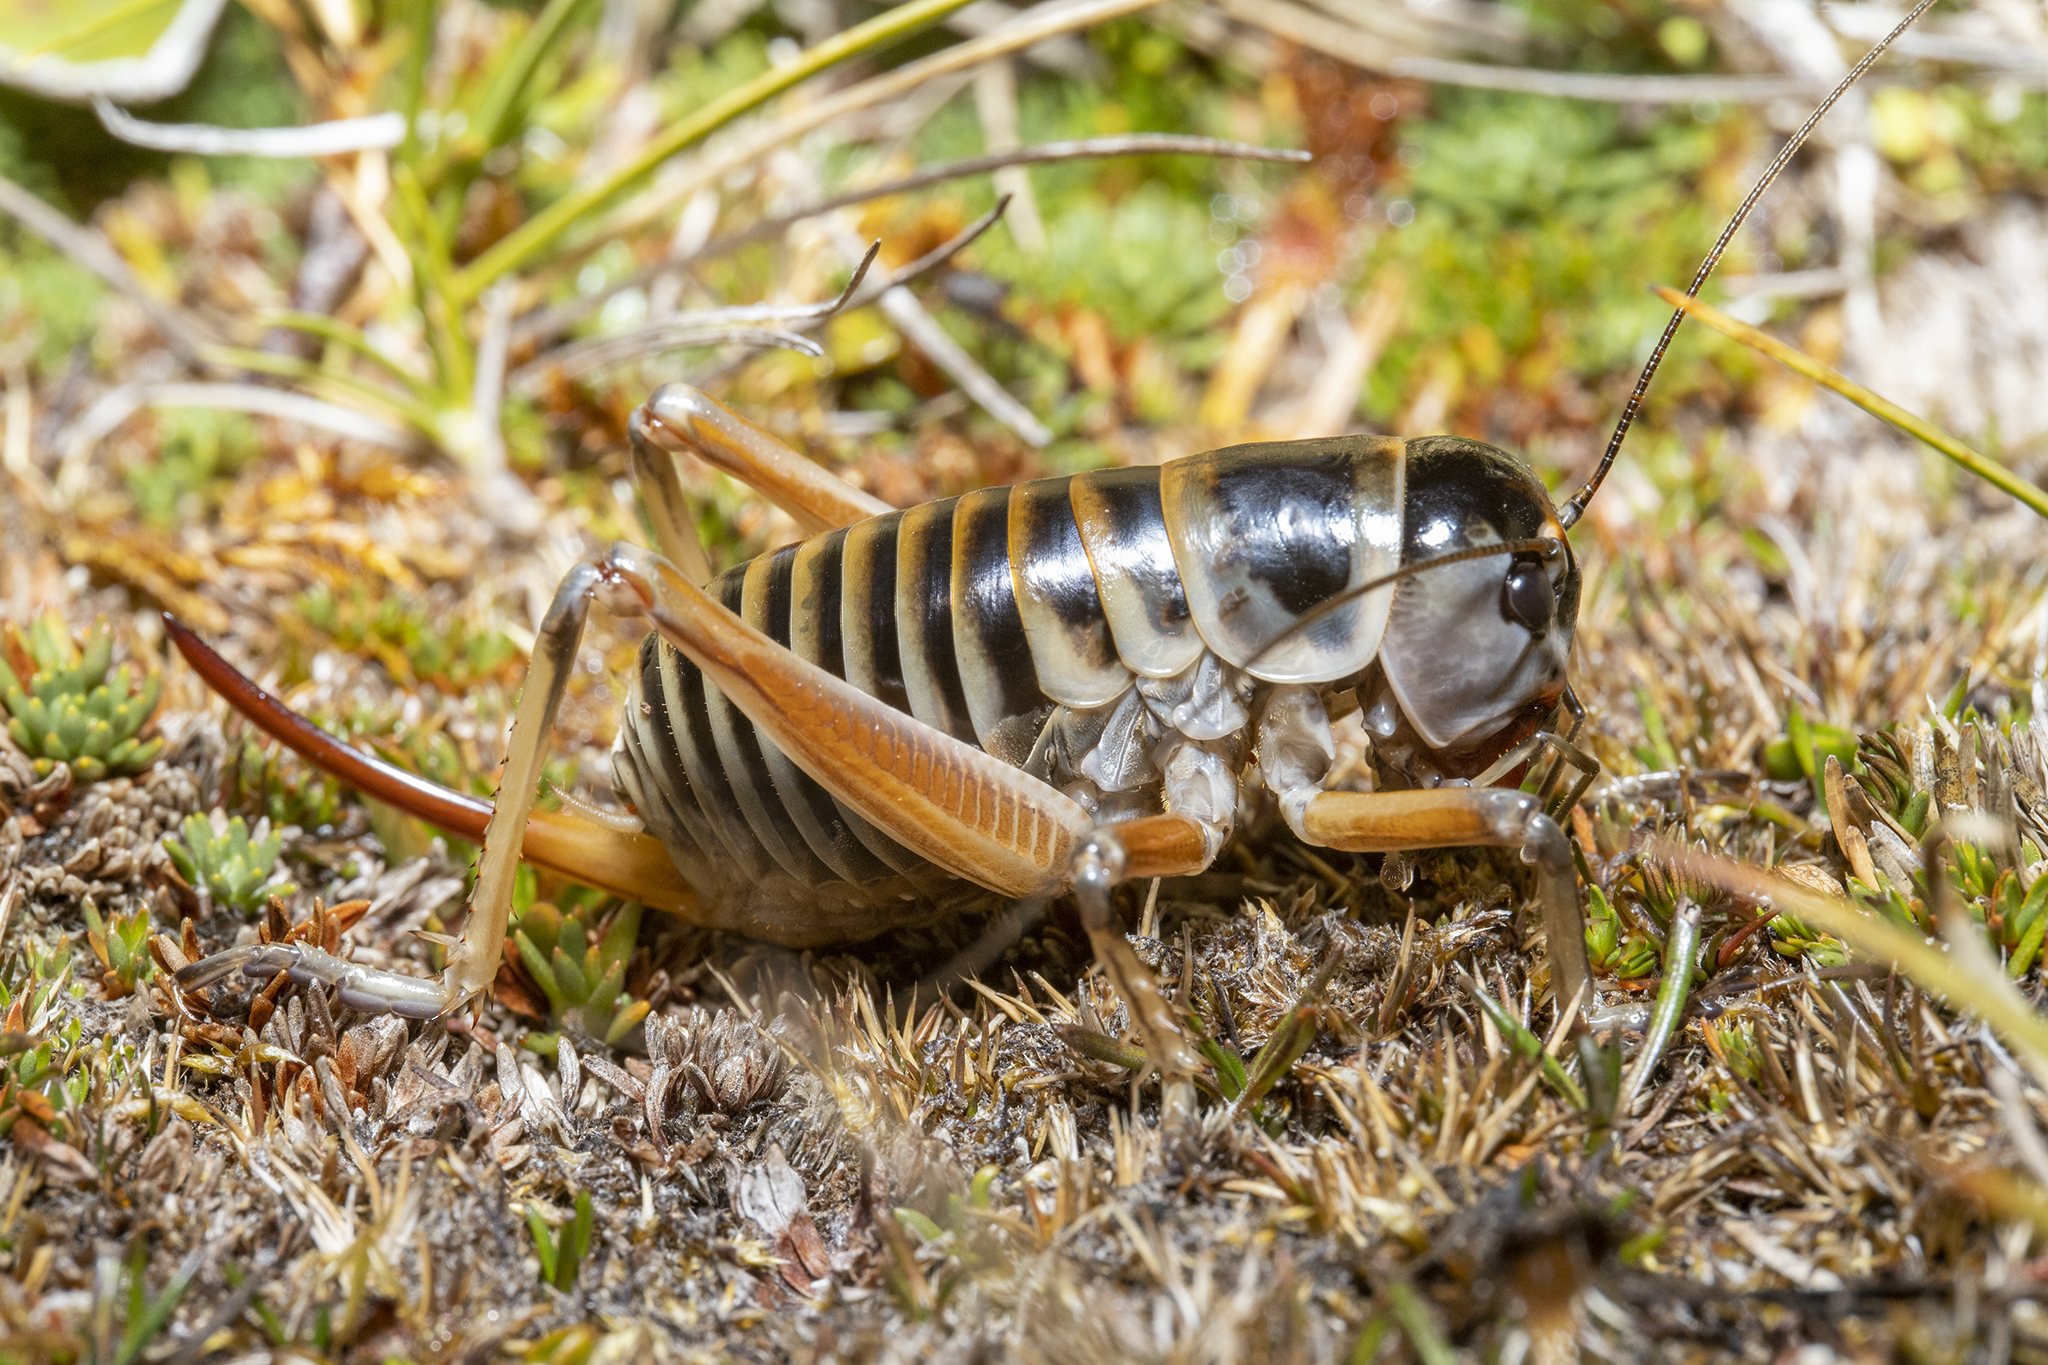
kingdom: Animalia
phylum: Arthropoda
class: Insecta
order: Orthoptera
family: Anostostomatidae
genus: Hemiandrus
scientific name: Hemiandrus focalis
